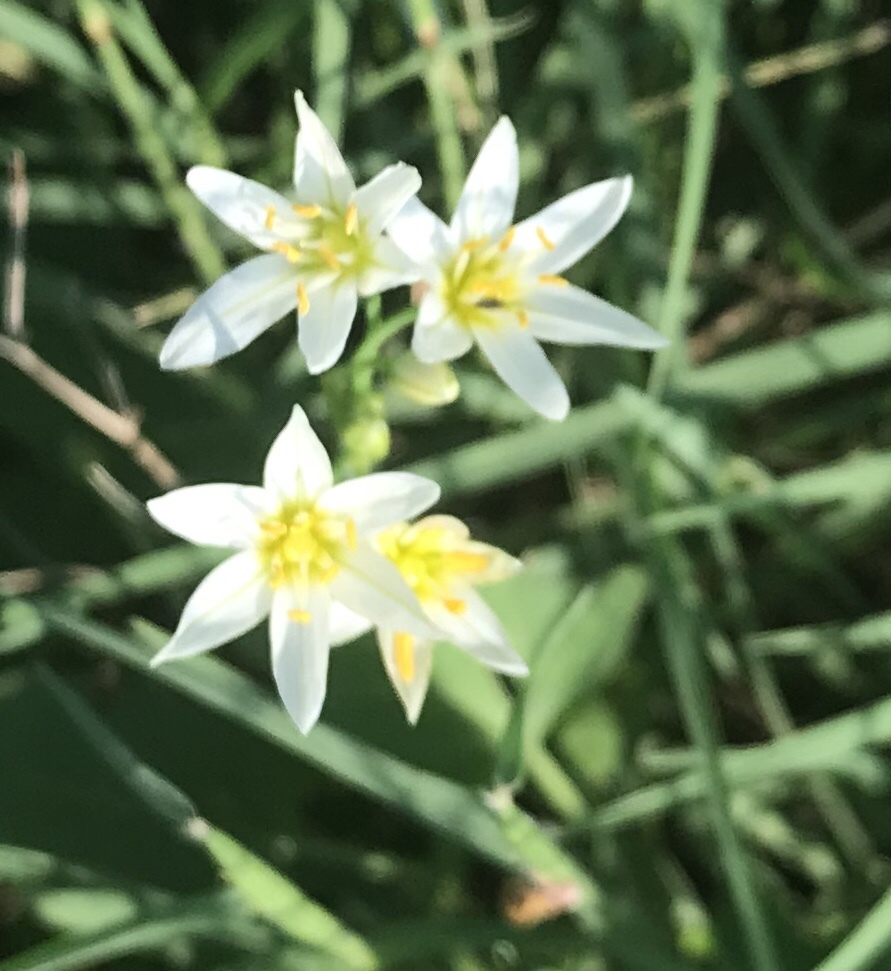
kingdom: Plantae
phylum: Tracheophyta
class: Liliopsida
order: Asparagales
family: Amaryllidaceae
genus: Nothoscordum
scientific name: Nothoscordum bivalve
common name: Crow-poison
